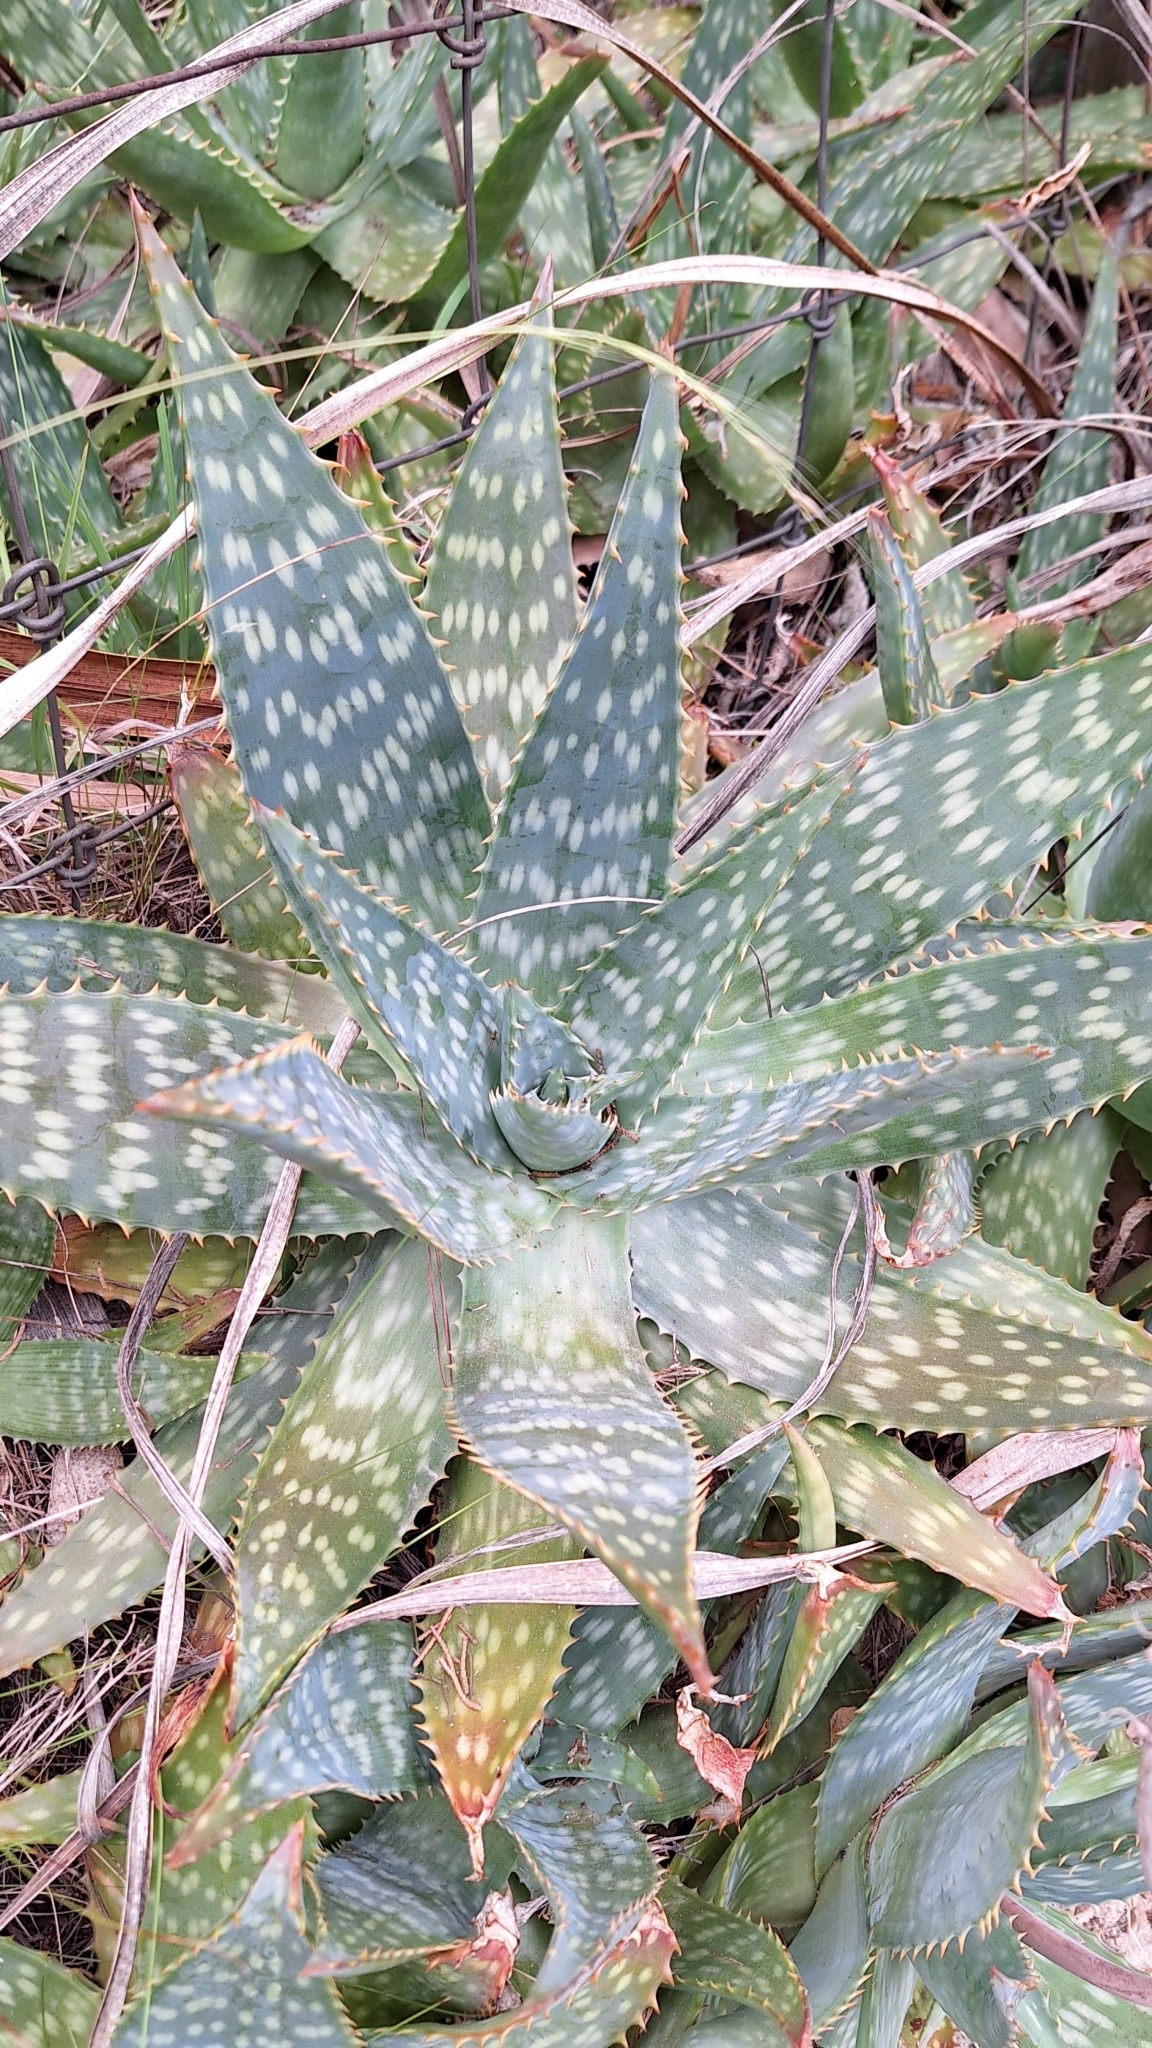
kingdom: Plantae
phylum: Tracheophyta
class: Liliopsida
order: Asparagales
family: Asphodelaceae
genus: Aloe
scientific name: Aloe maculata
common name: Broadleaf aloe
